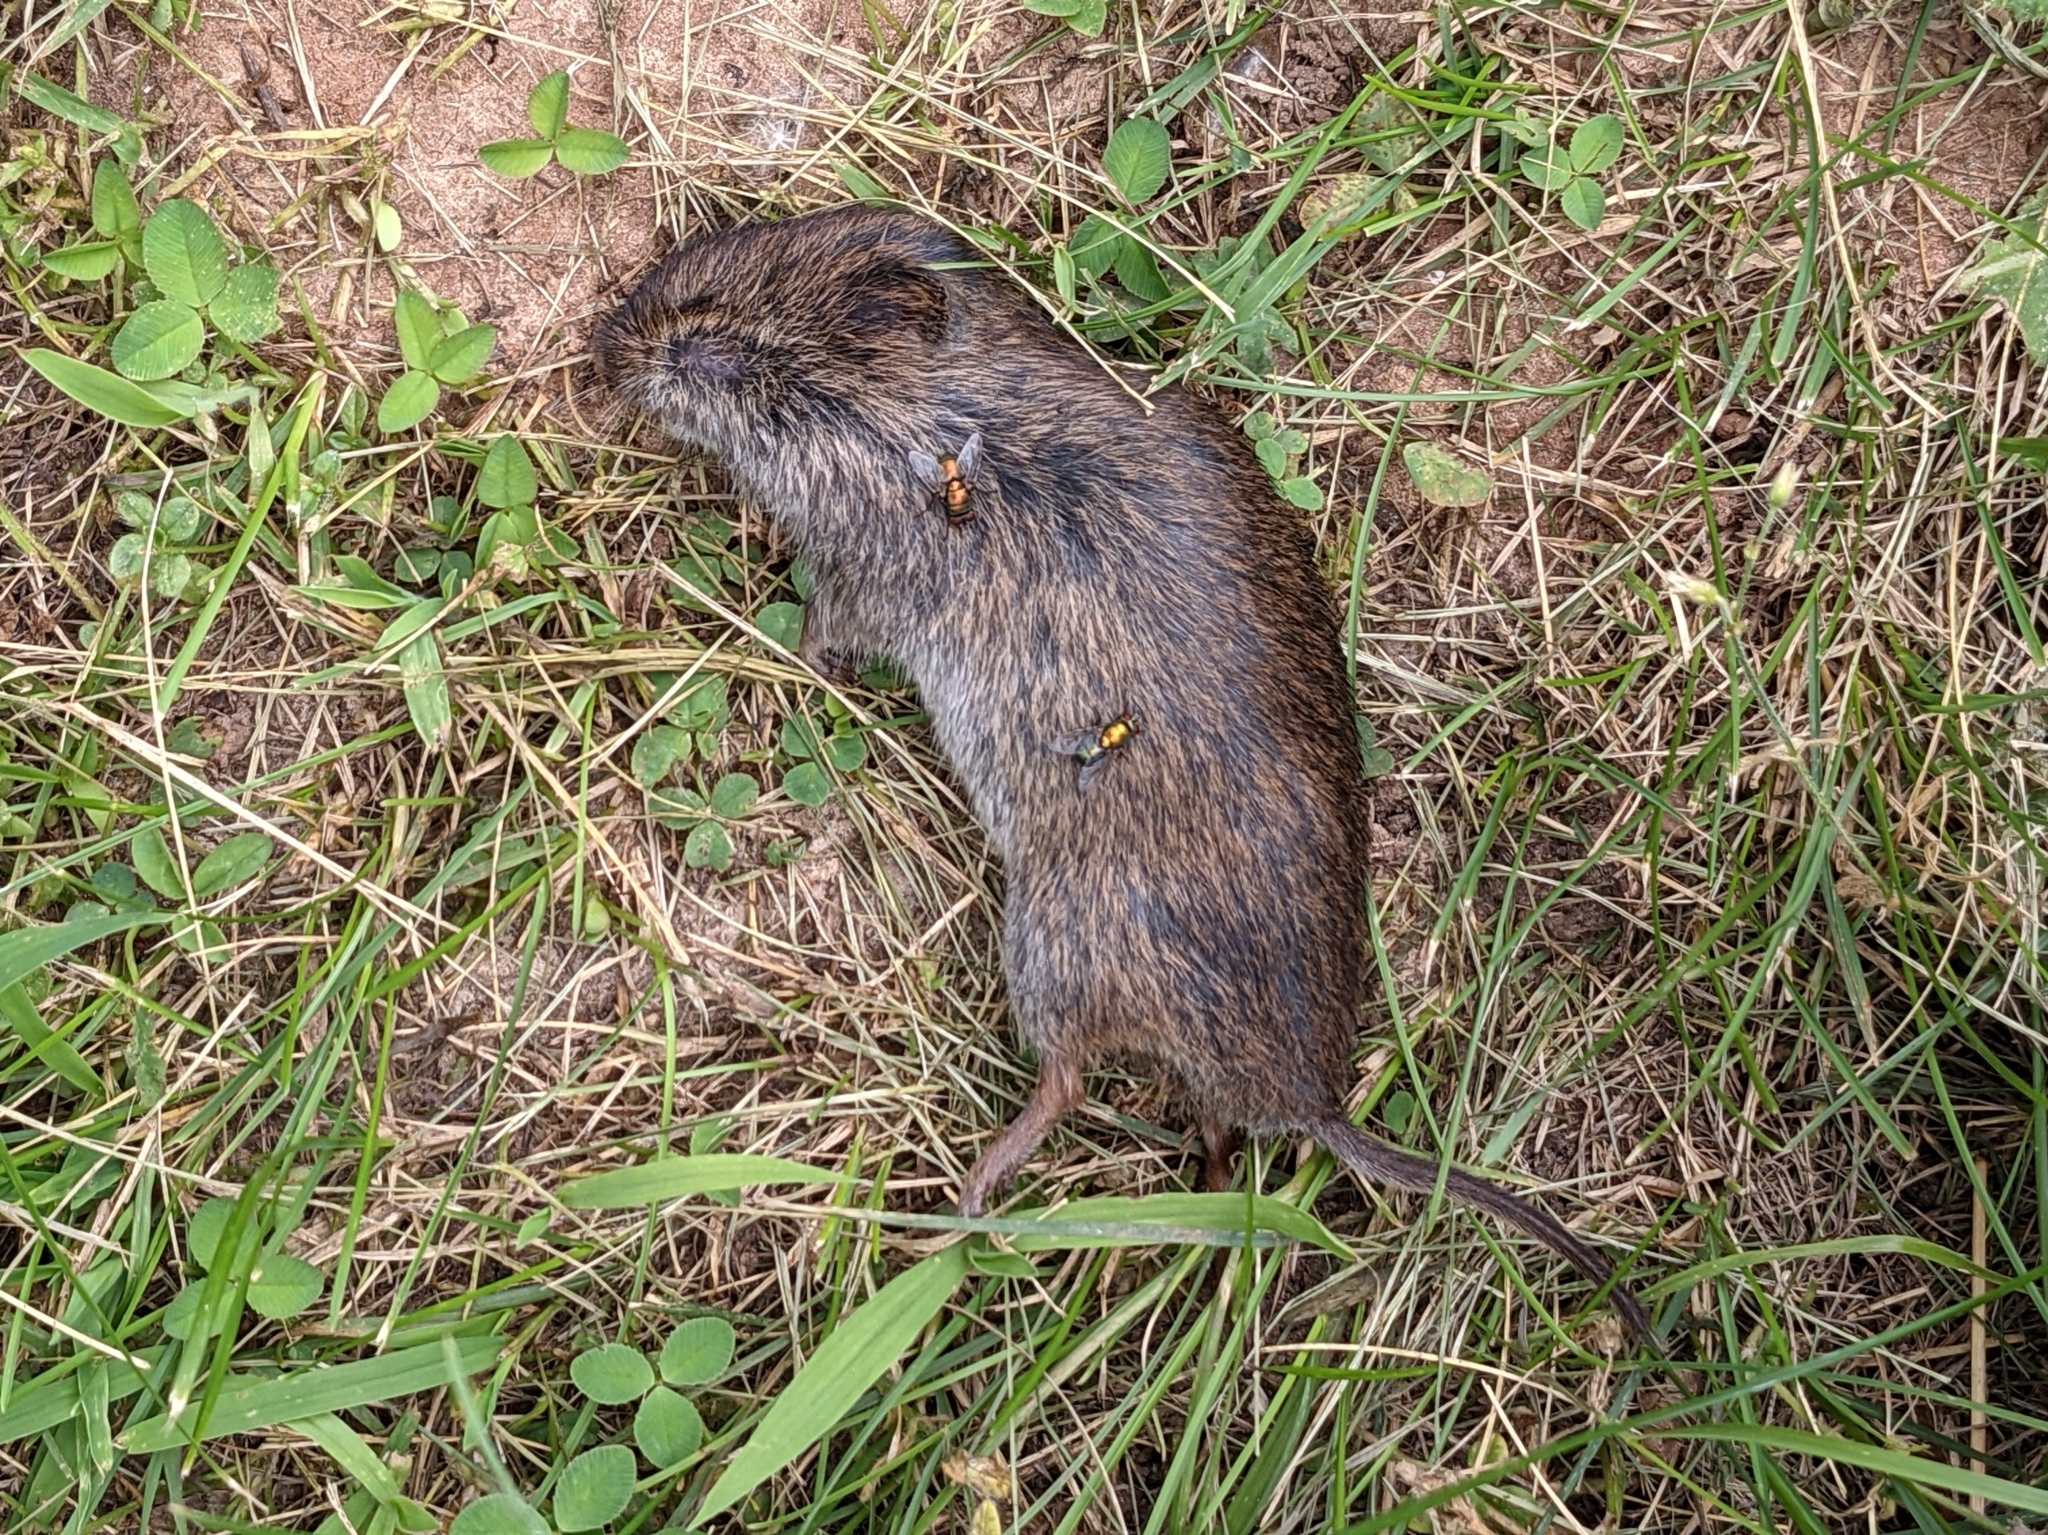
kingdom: Animalia
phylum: Chordata
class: Mammalia
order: Rodentia
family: Cricetidae
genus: Microtus
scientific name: Microtus pennsylvanicus
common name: Meadow vole
